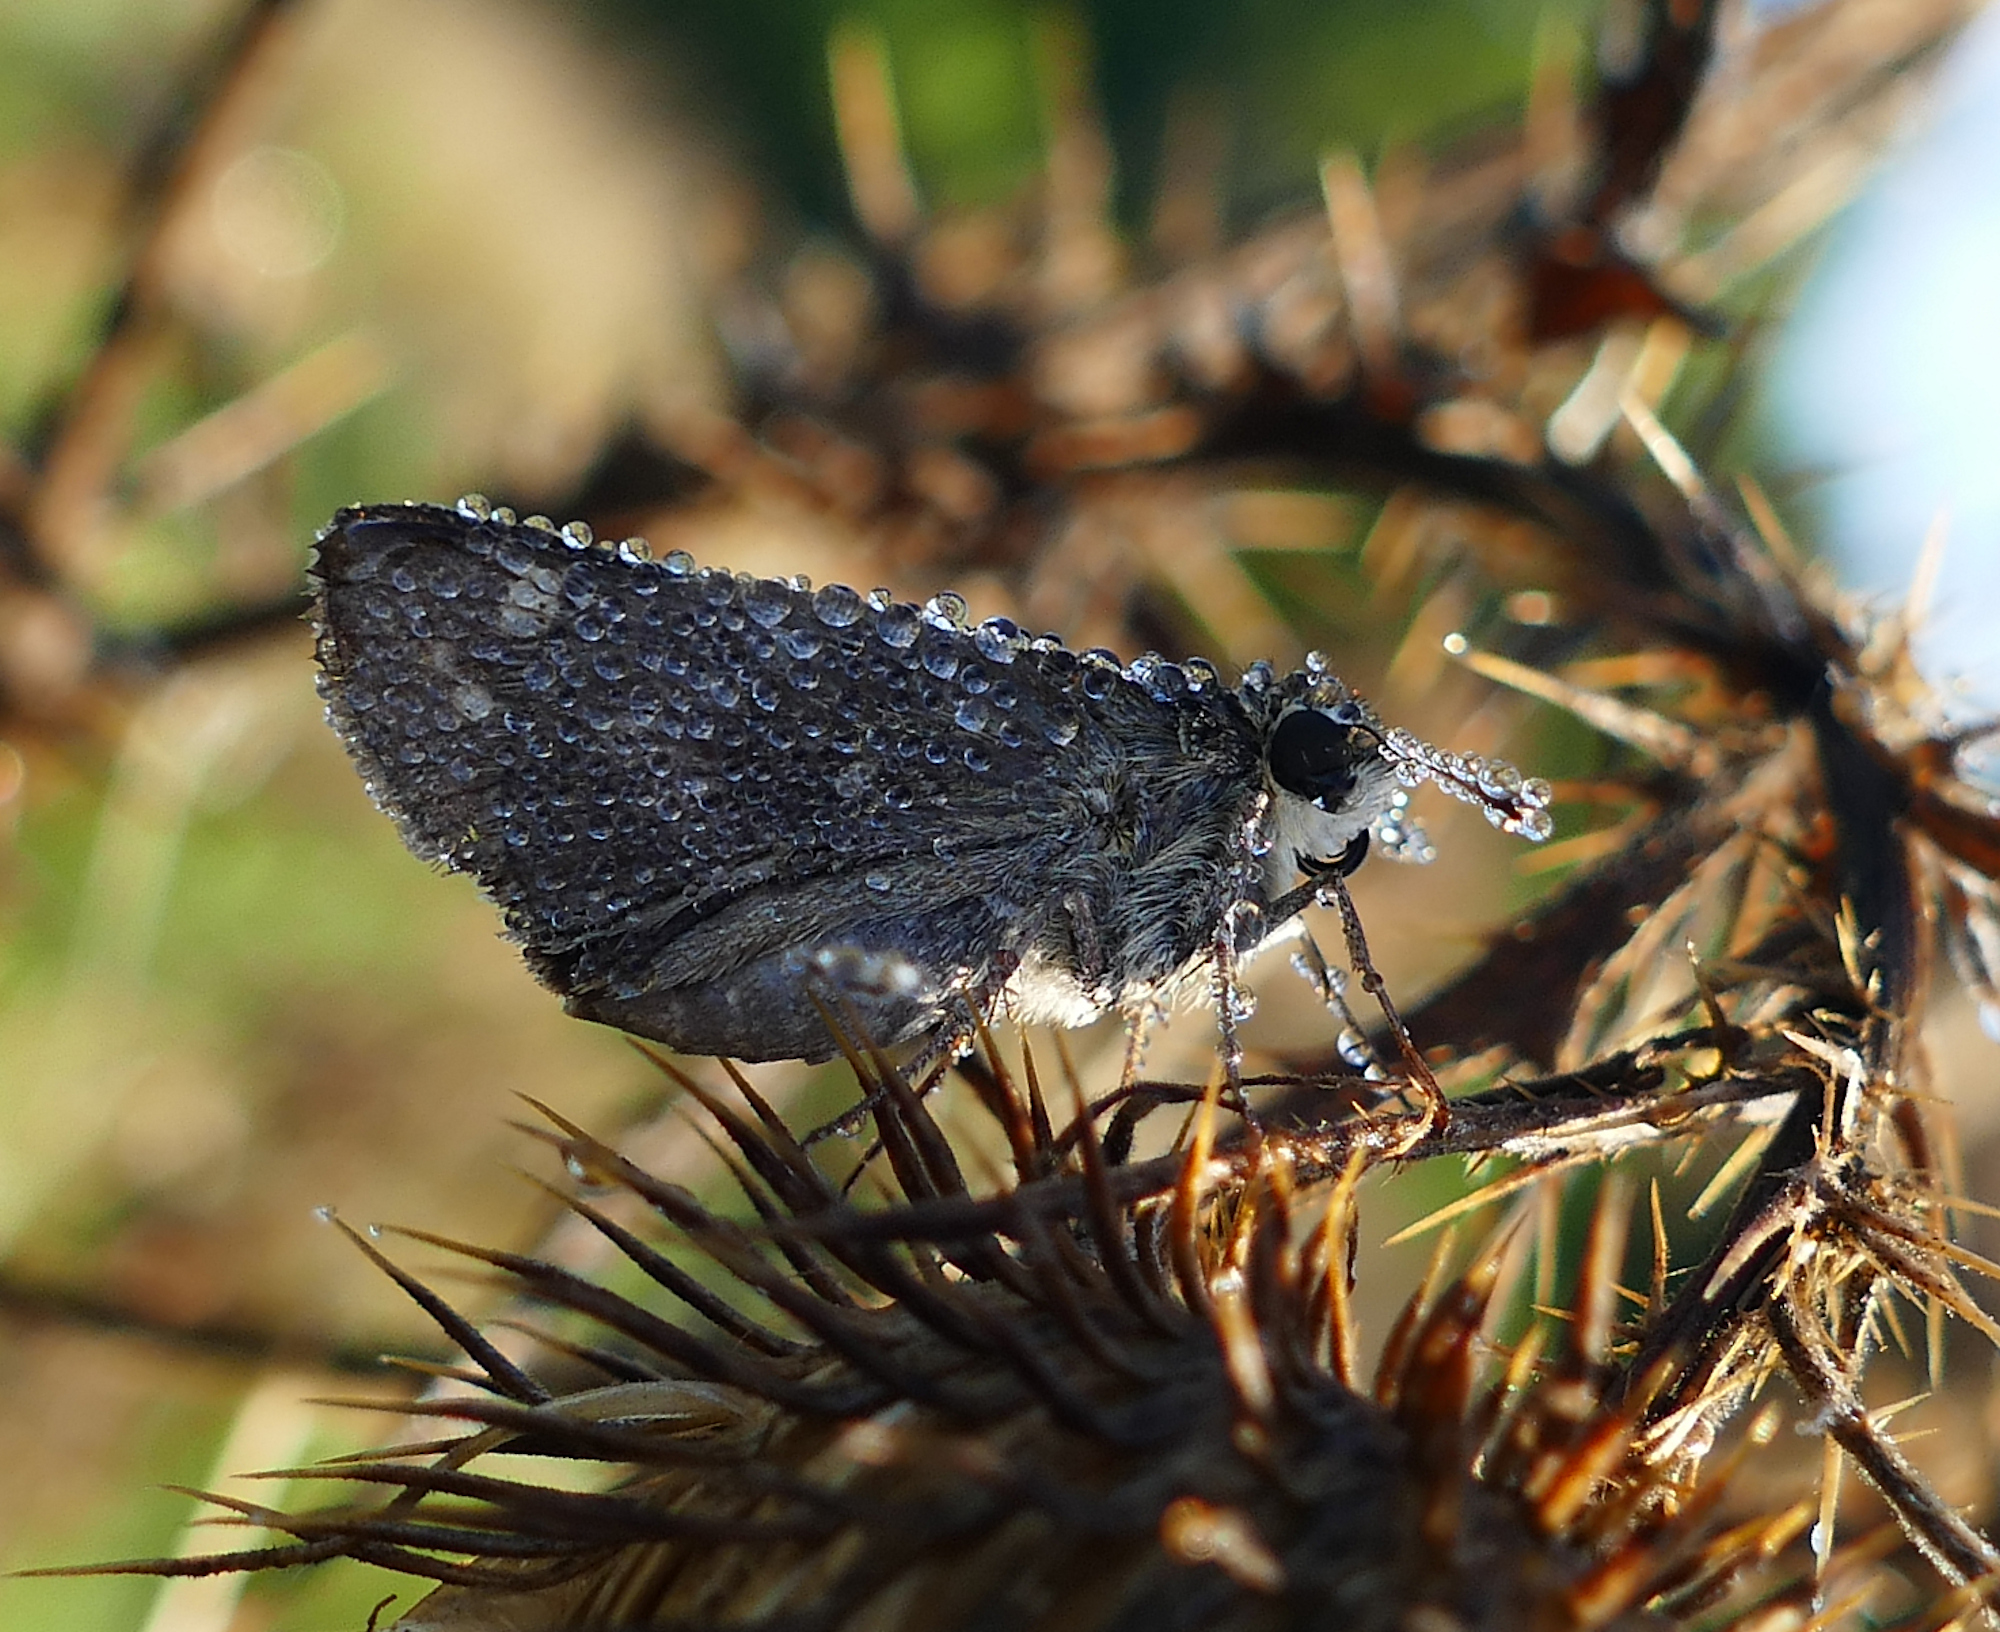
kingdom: Animalia
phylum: Arthropoda
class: Insecta
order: Lepidoptera
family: Hesperiidae
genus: Atalopedes
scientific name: Atalopedes
